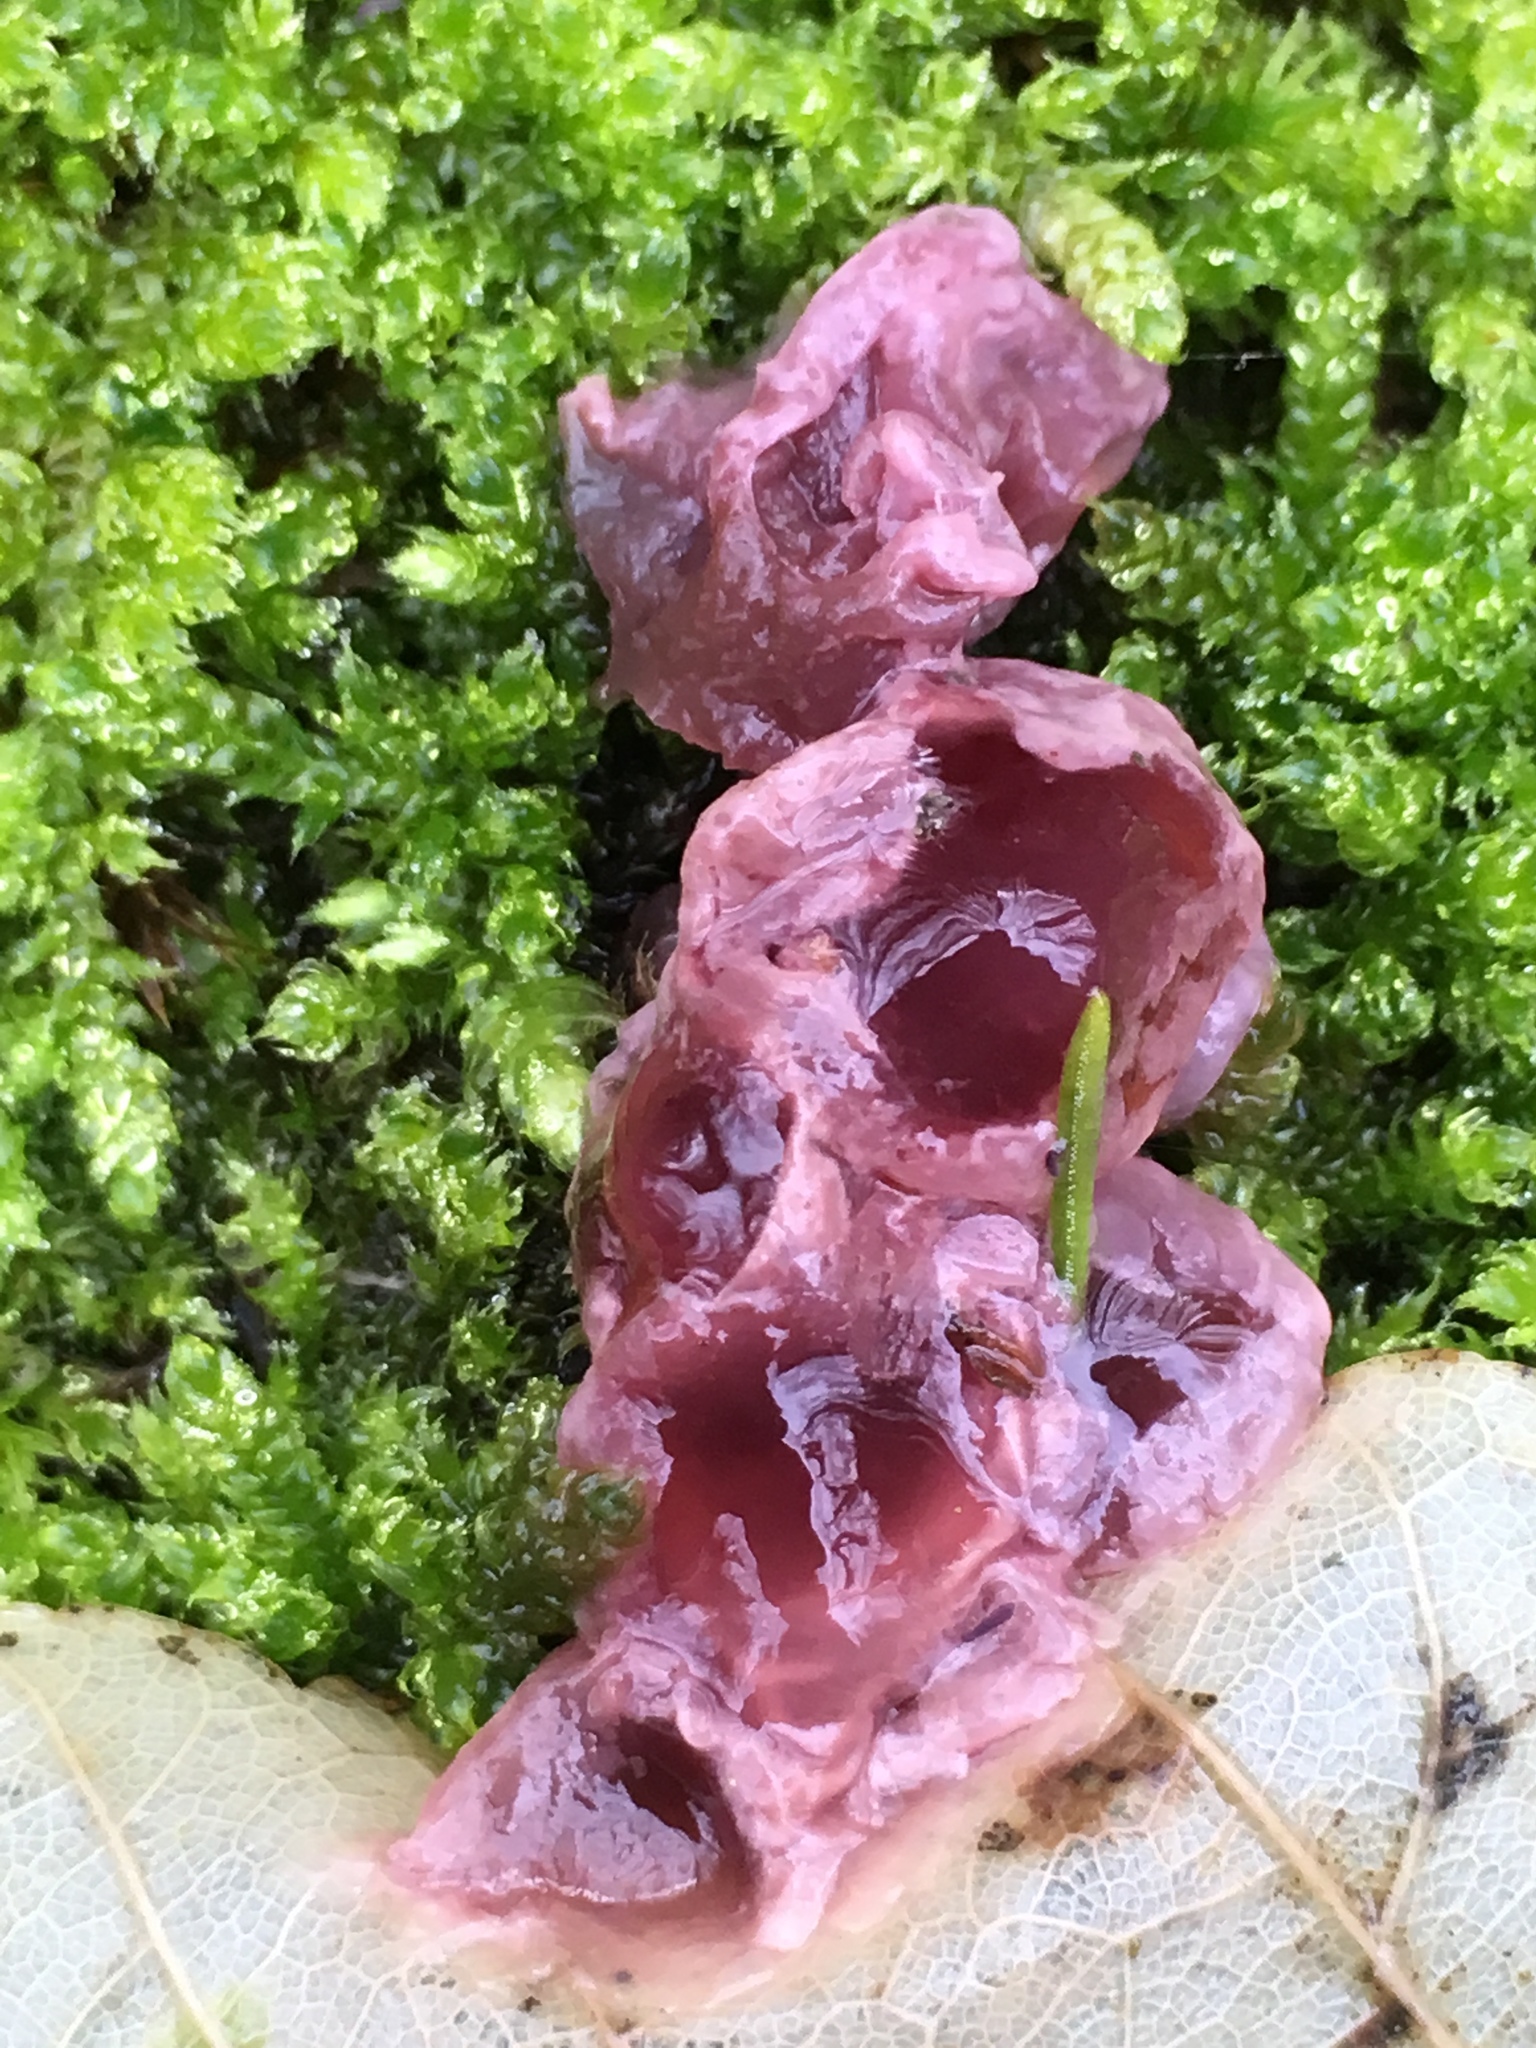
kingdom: Fungi
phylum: Ascomycota
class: Leotiomycetes
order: Helotiales
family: Gelatinodiscaceae
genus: Ascocoryne
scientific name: Ascocoryne sarcoides
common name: Purple jellydisc
